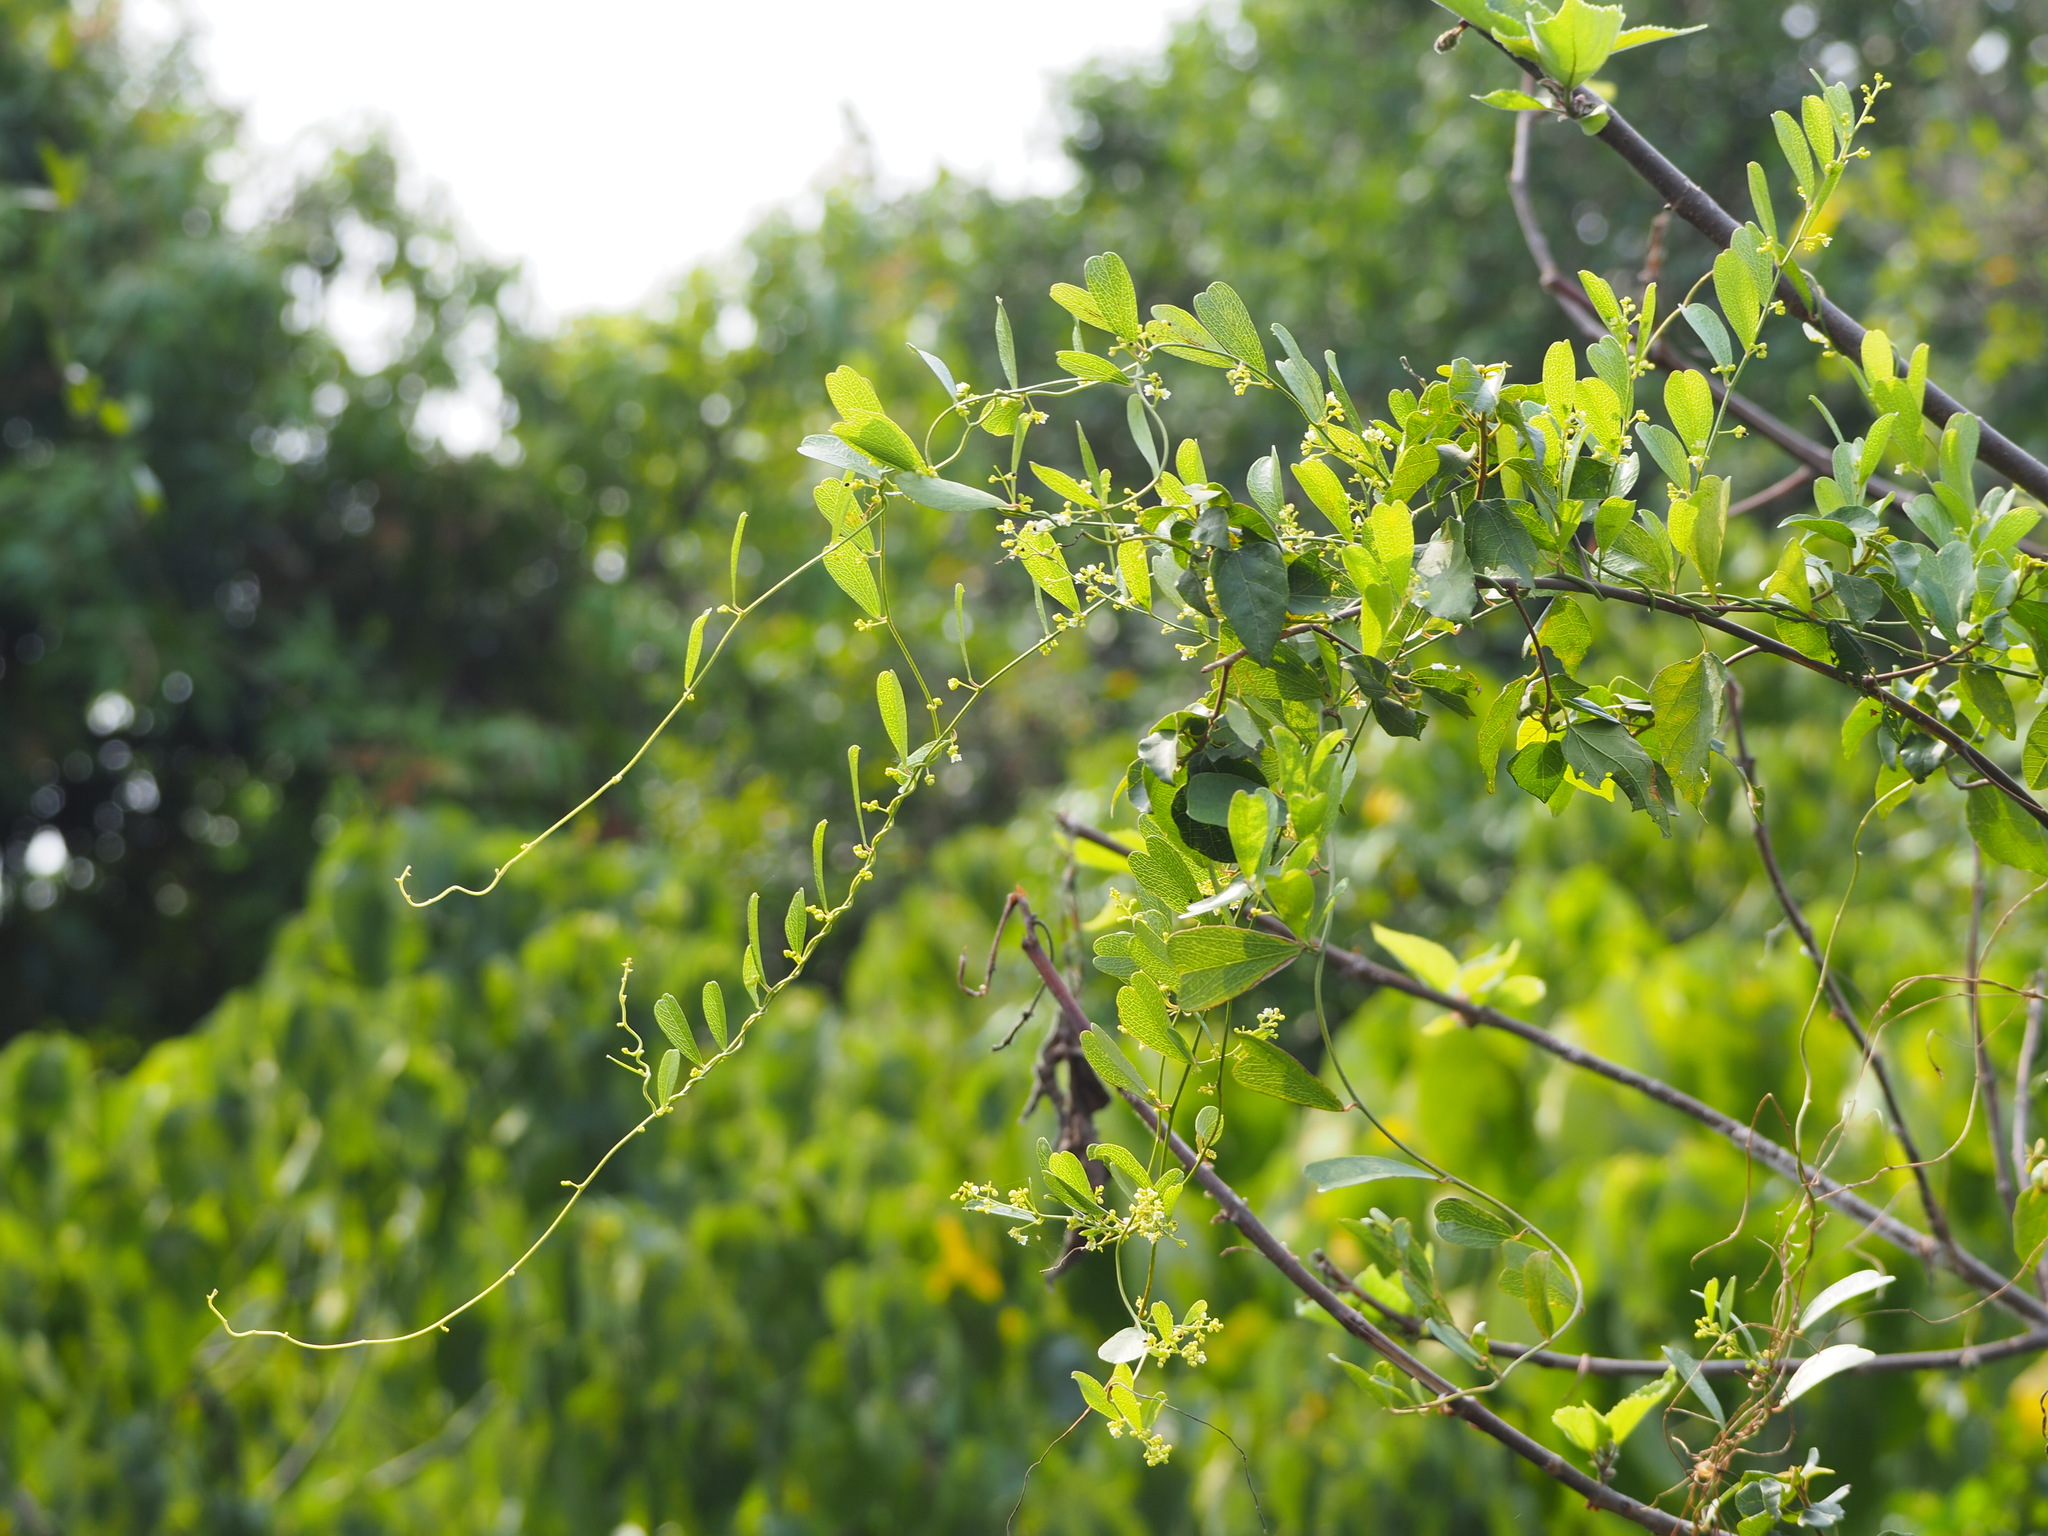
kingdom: Plantae
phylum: Tracheophyta
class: Magnoliopsida
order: Ranunculales
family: Menispermaceae
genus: Cocculus
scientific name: Cocculus orbiculatus
